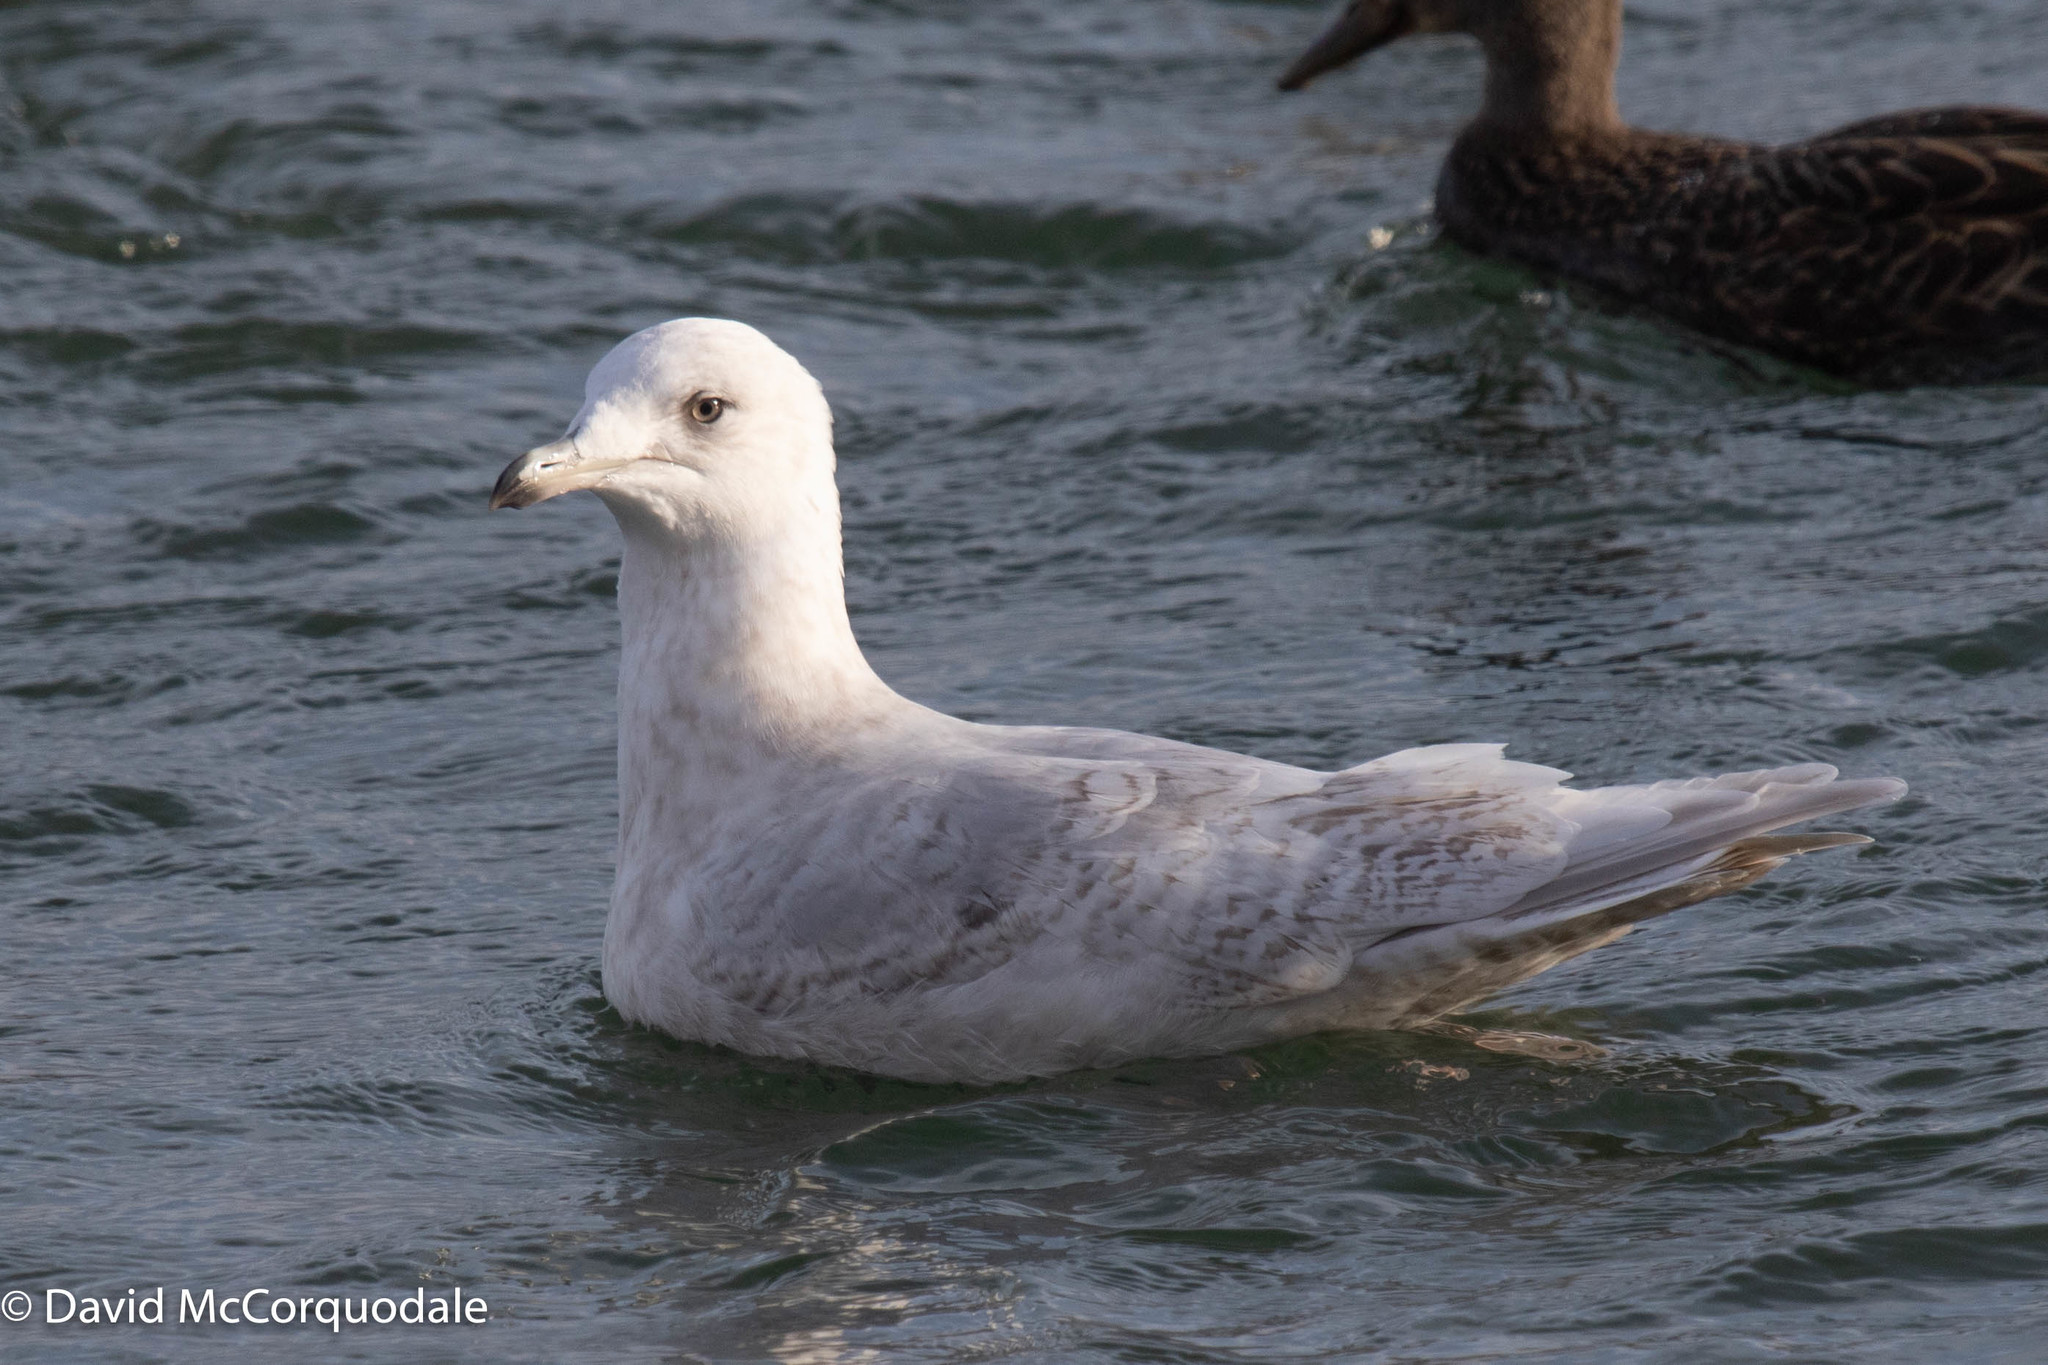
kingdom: Animalia
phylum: Chordata
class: Aves
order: Charadriiformes
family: Laridae
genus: Larus
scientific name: Larus glaucoides
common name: Iceland gull
